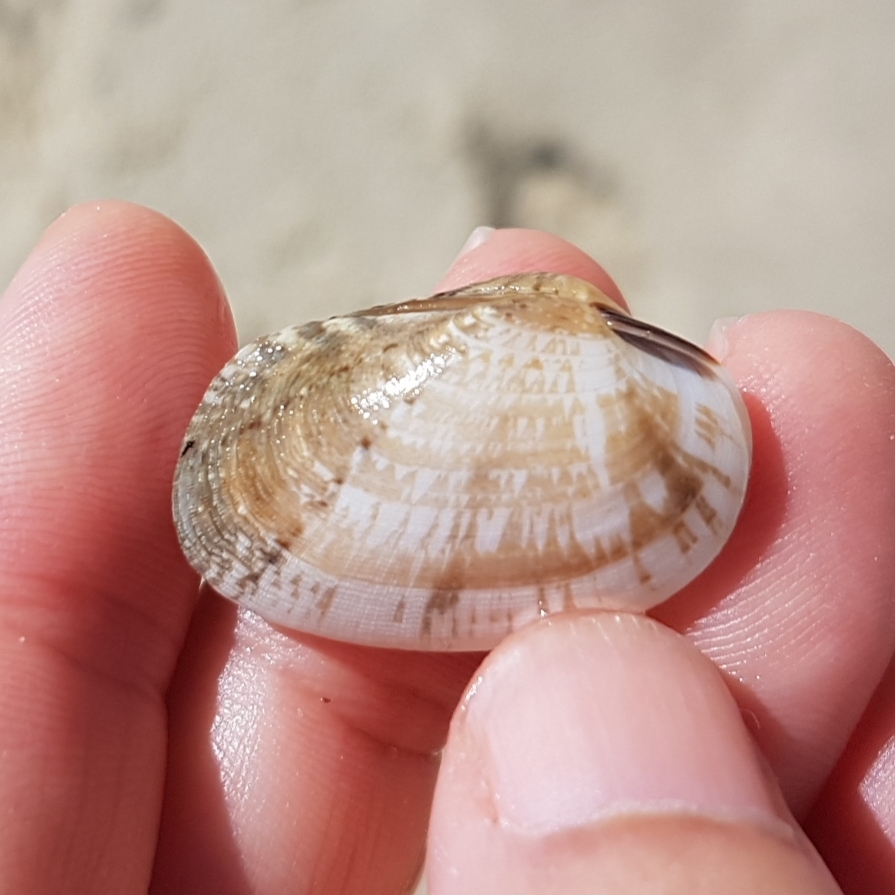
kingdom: Animalia
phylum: Mollusca
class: Bivalvia
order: Venerida
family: Veneridae
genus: Venerupis
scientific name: Venerupis corrugata
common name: Pullet carpet shell
